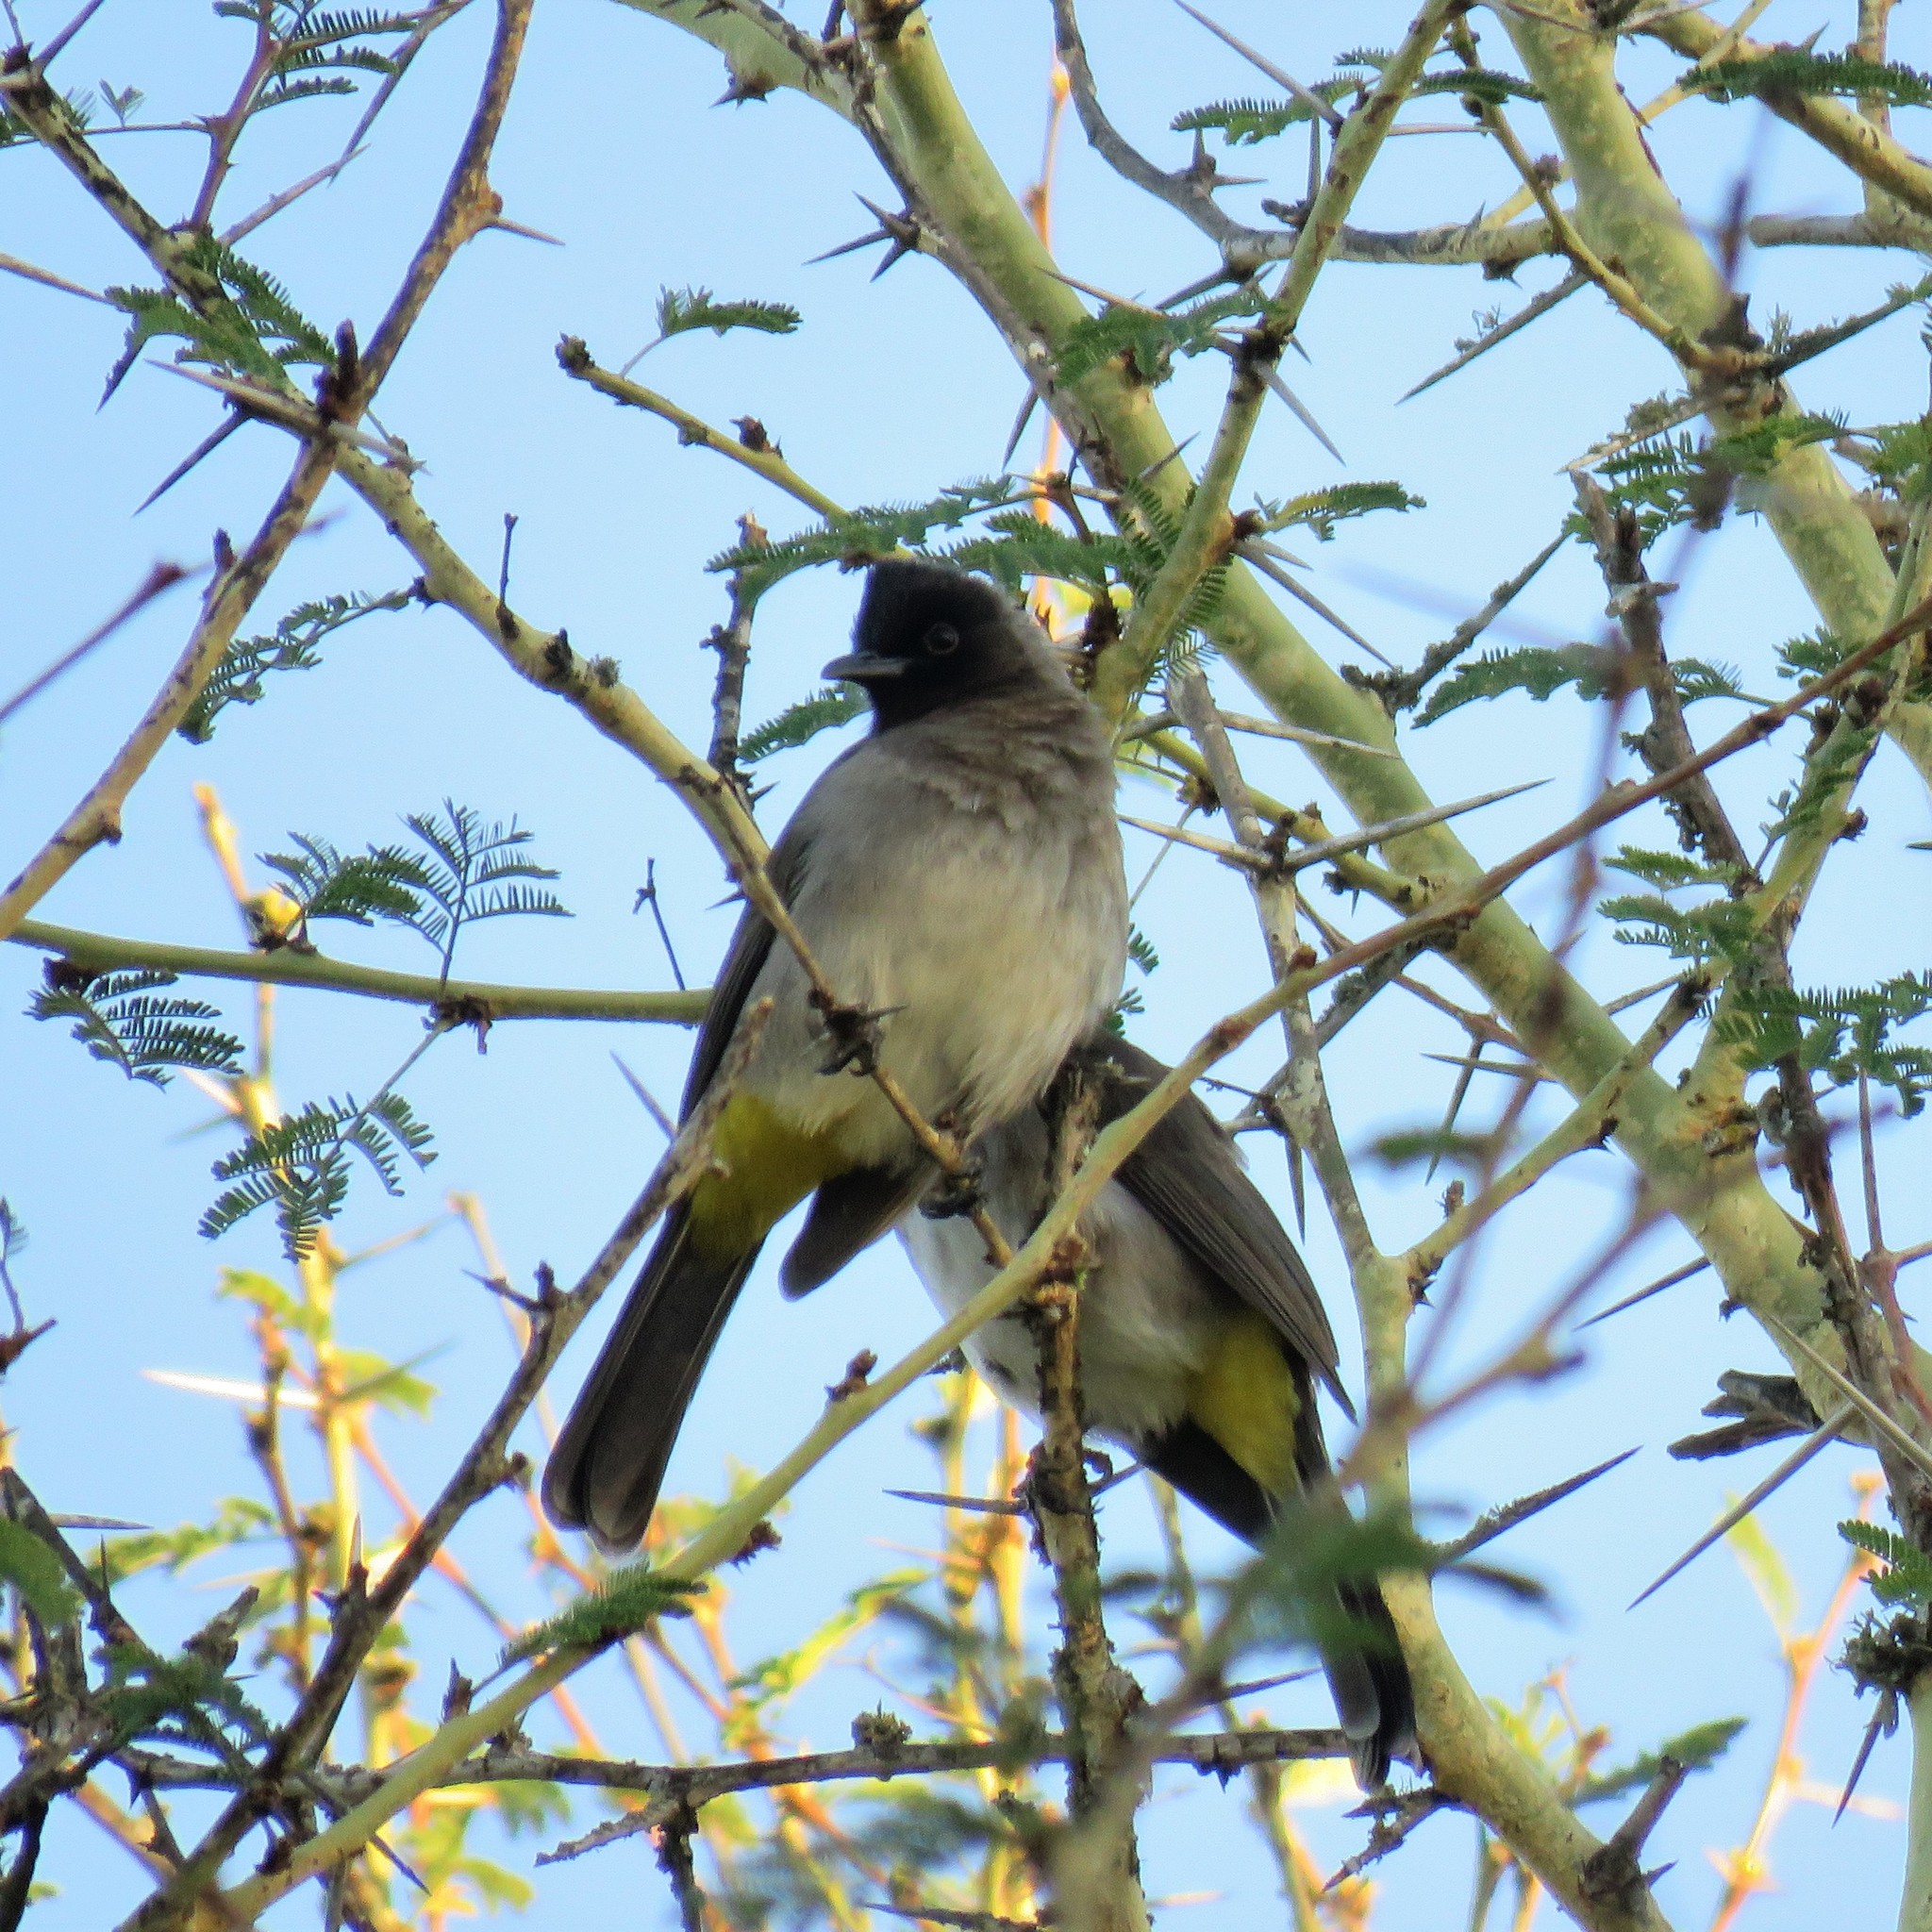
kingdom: Animalia
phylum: Chordata
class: Aves
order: Passeriformes
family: Pycnonotidae
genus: Pycnonotus
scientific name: Pycnonotus barbatus
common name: Common bulbul
